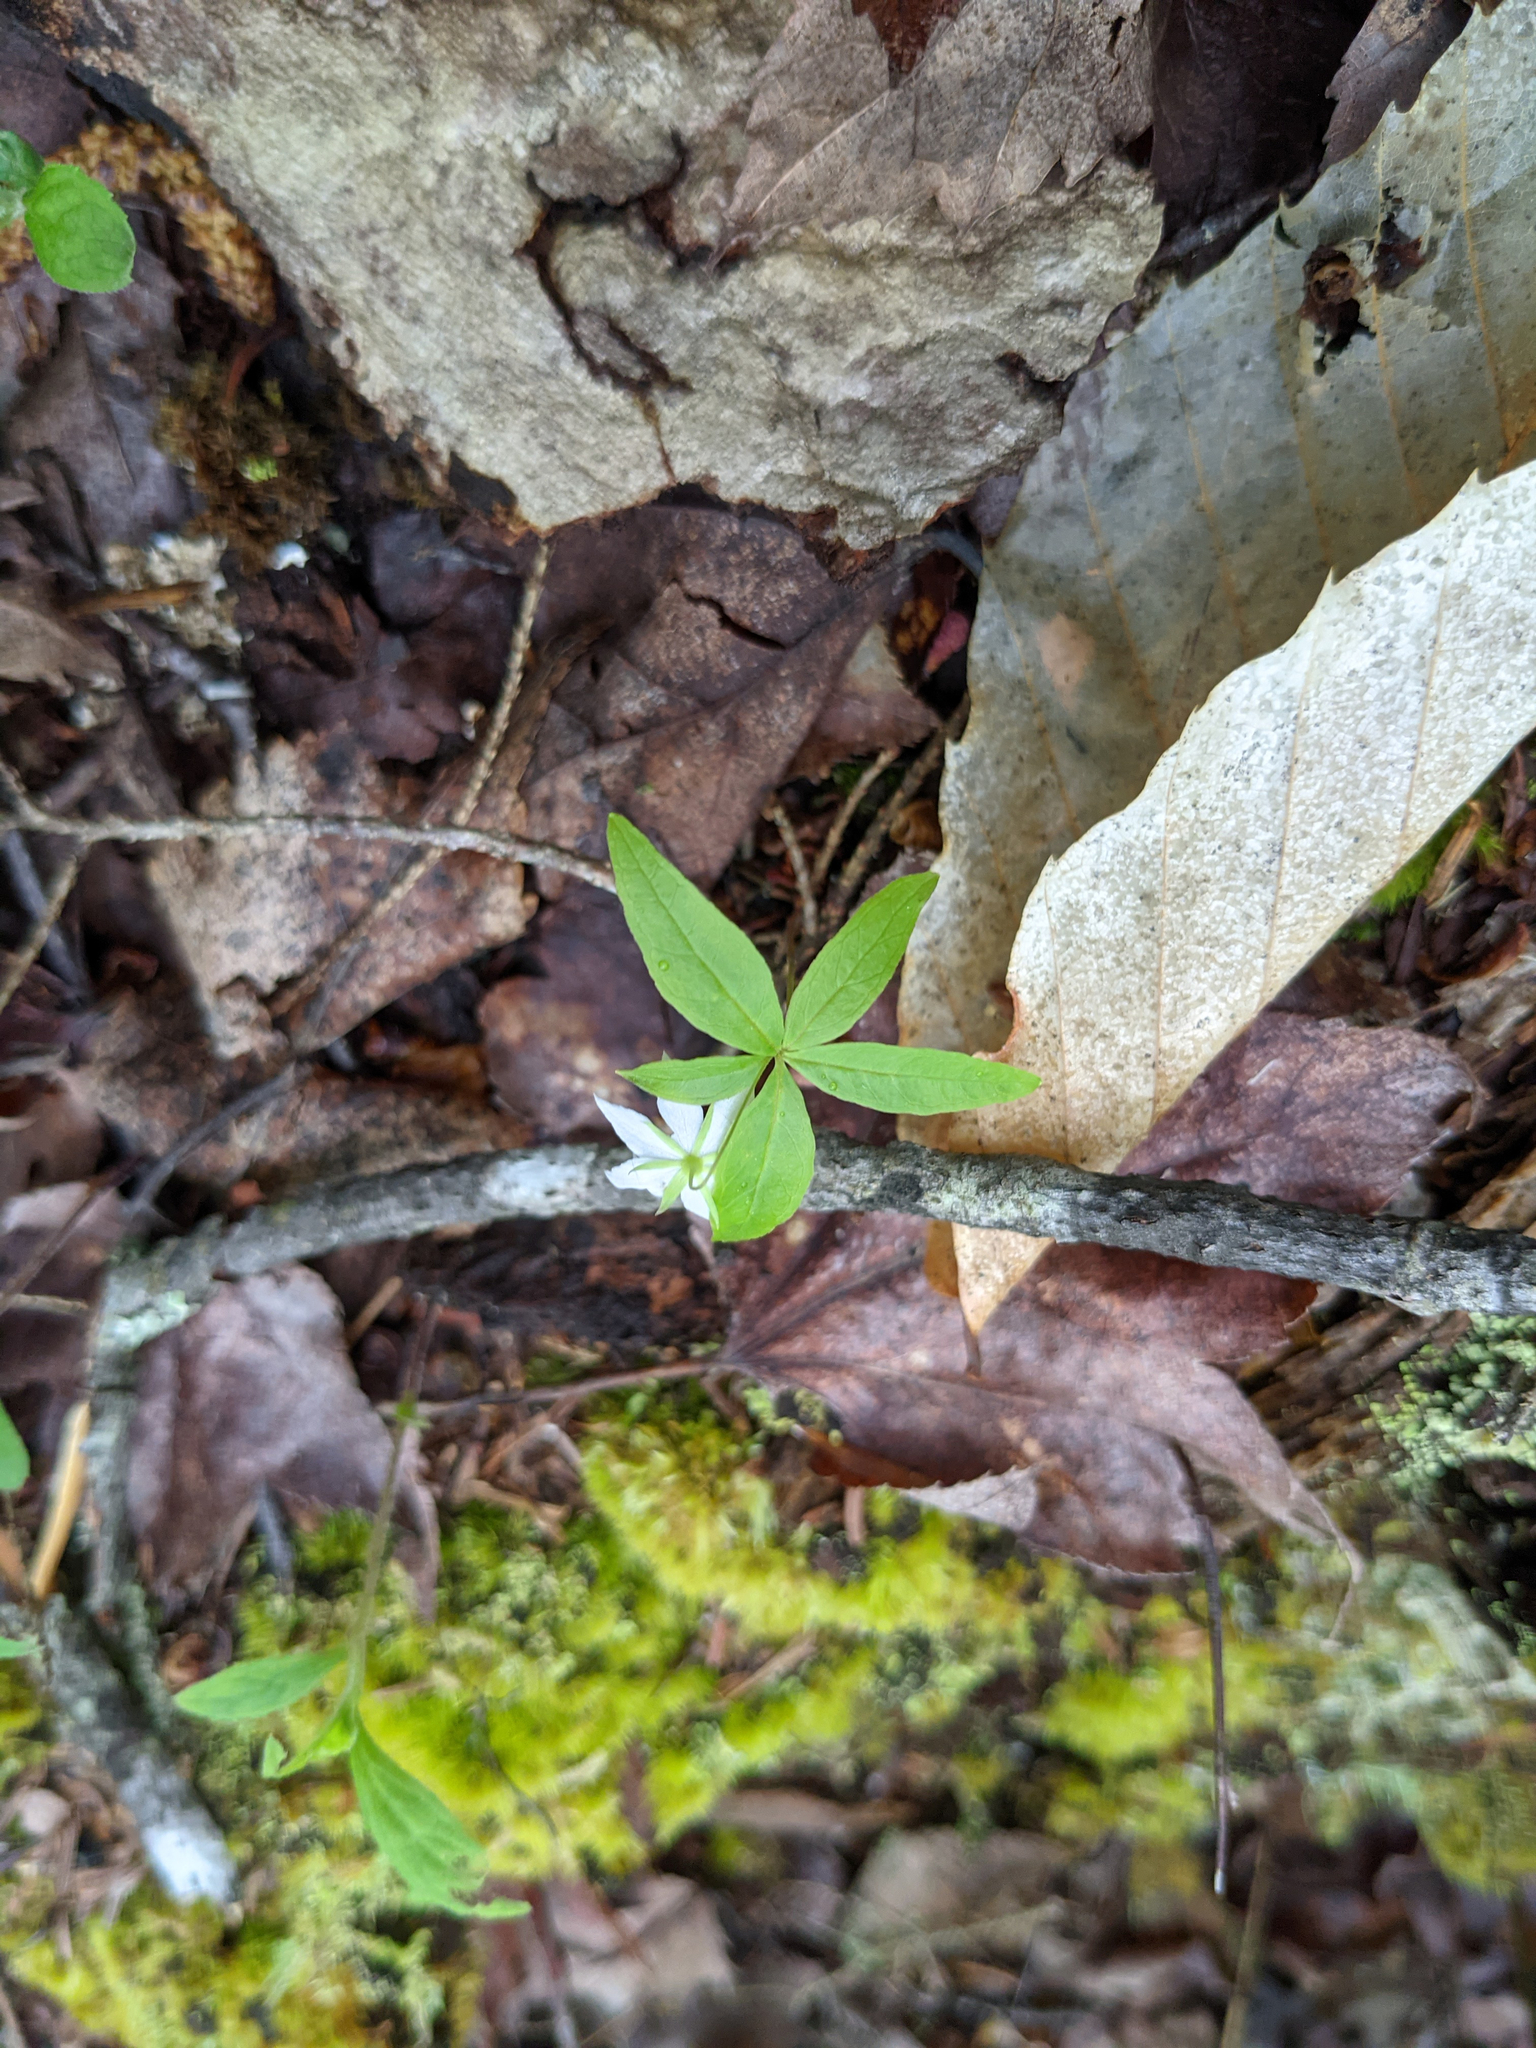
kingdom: Plantae
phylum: Tracheophyta
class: Magnoliopsida
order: Ericales
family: Primulaceae
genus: Lysimachia
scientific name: Lysimachia borealis
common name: American starflower
